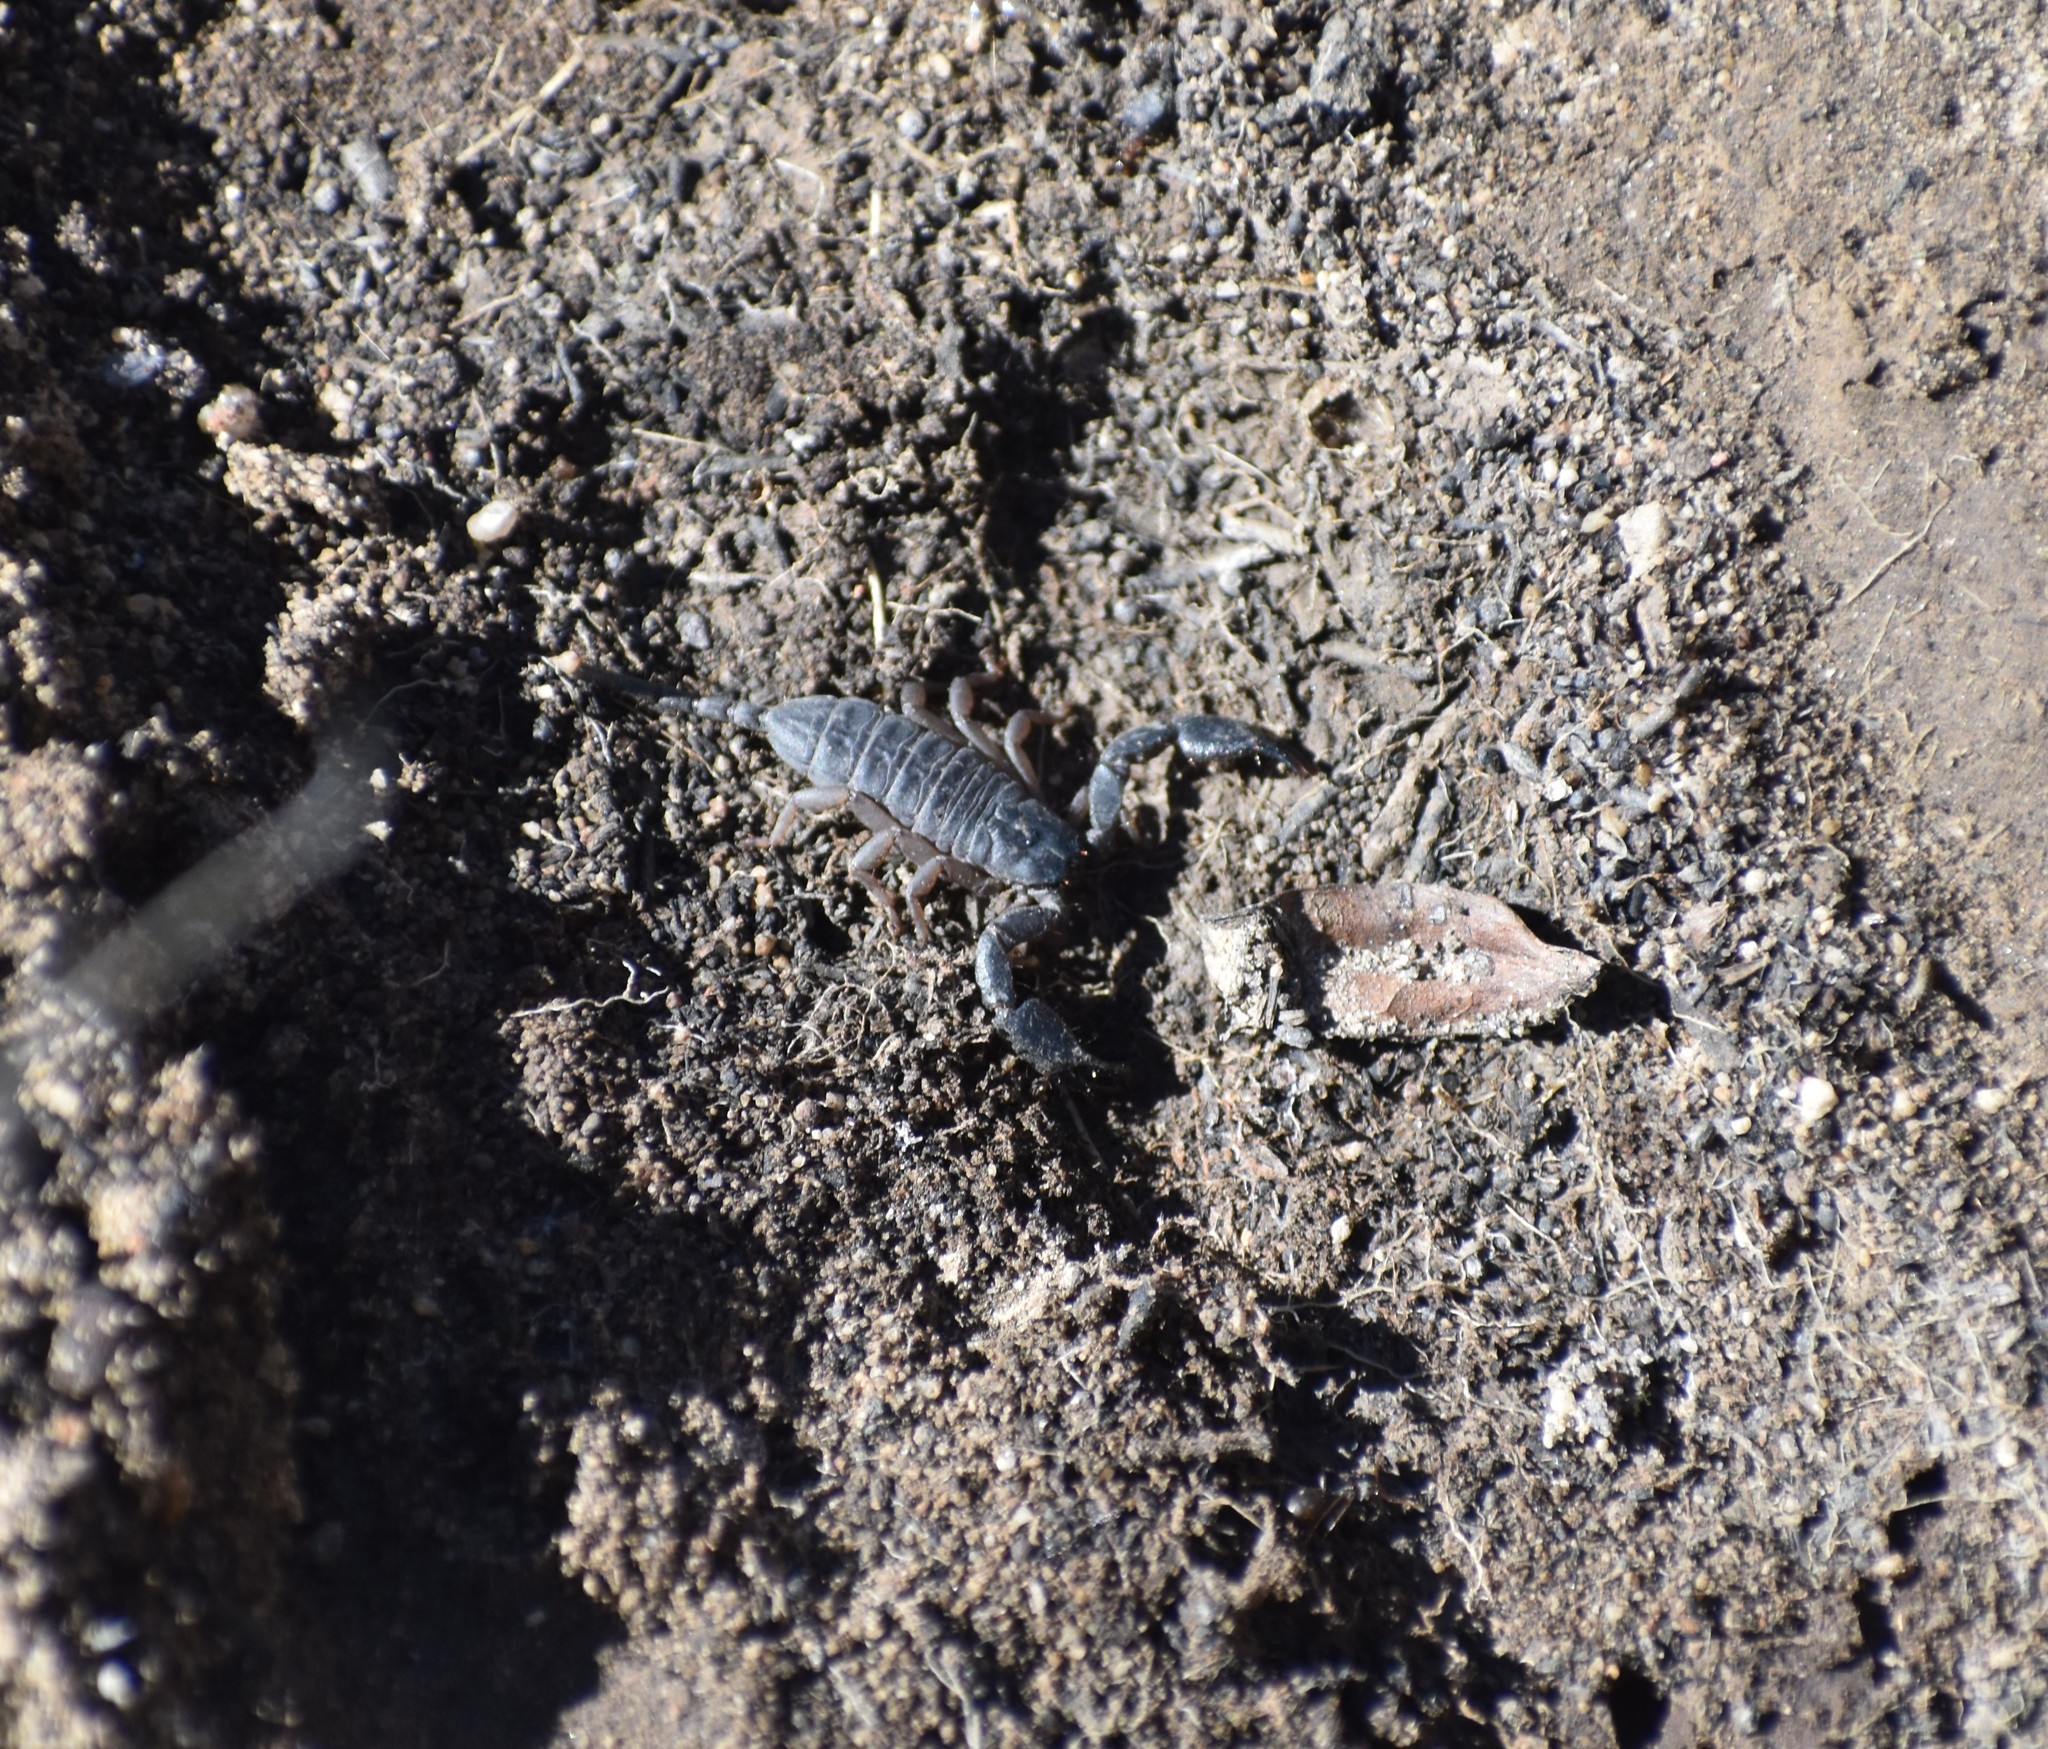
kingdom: Animalia
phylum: Arthropoda
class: Arachnida
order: Scorpiones
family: Hormuridae
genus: Opisthacanthus
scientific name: Opisthacanthus diremptus
